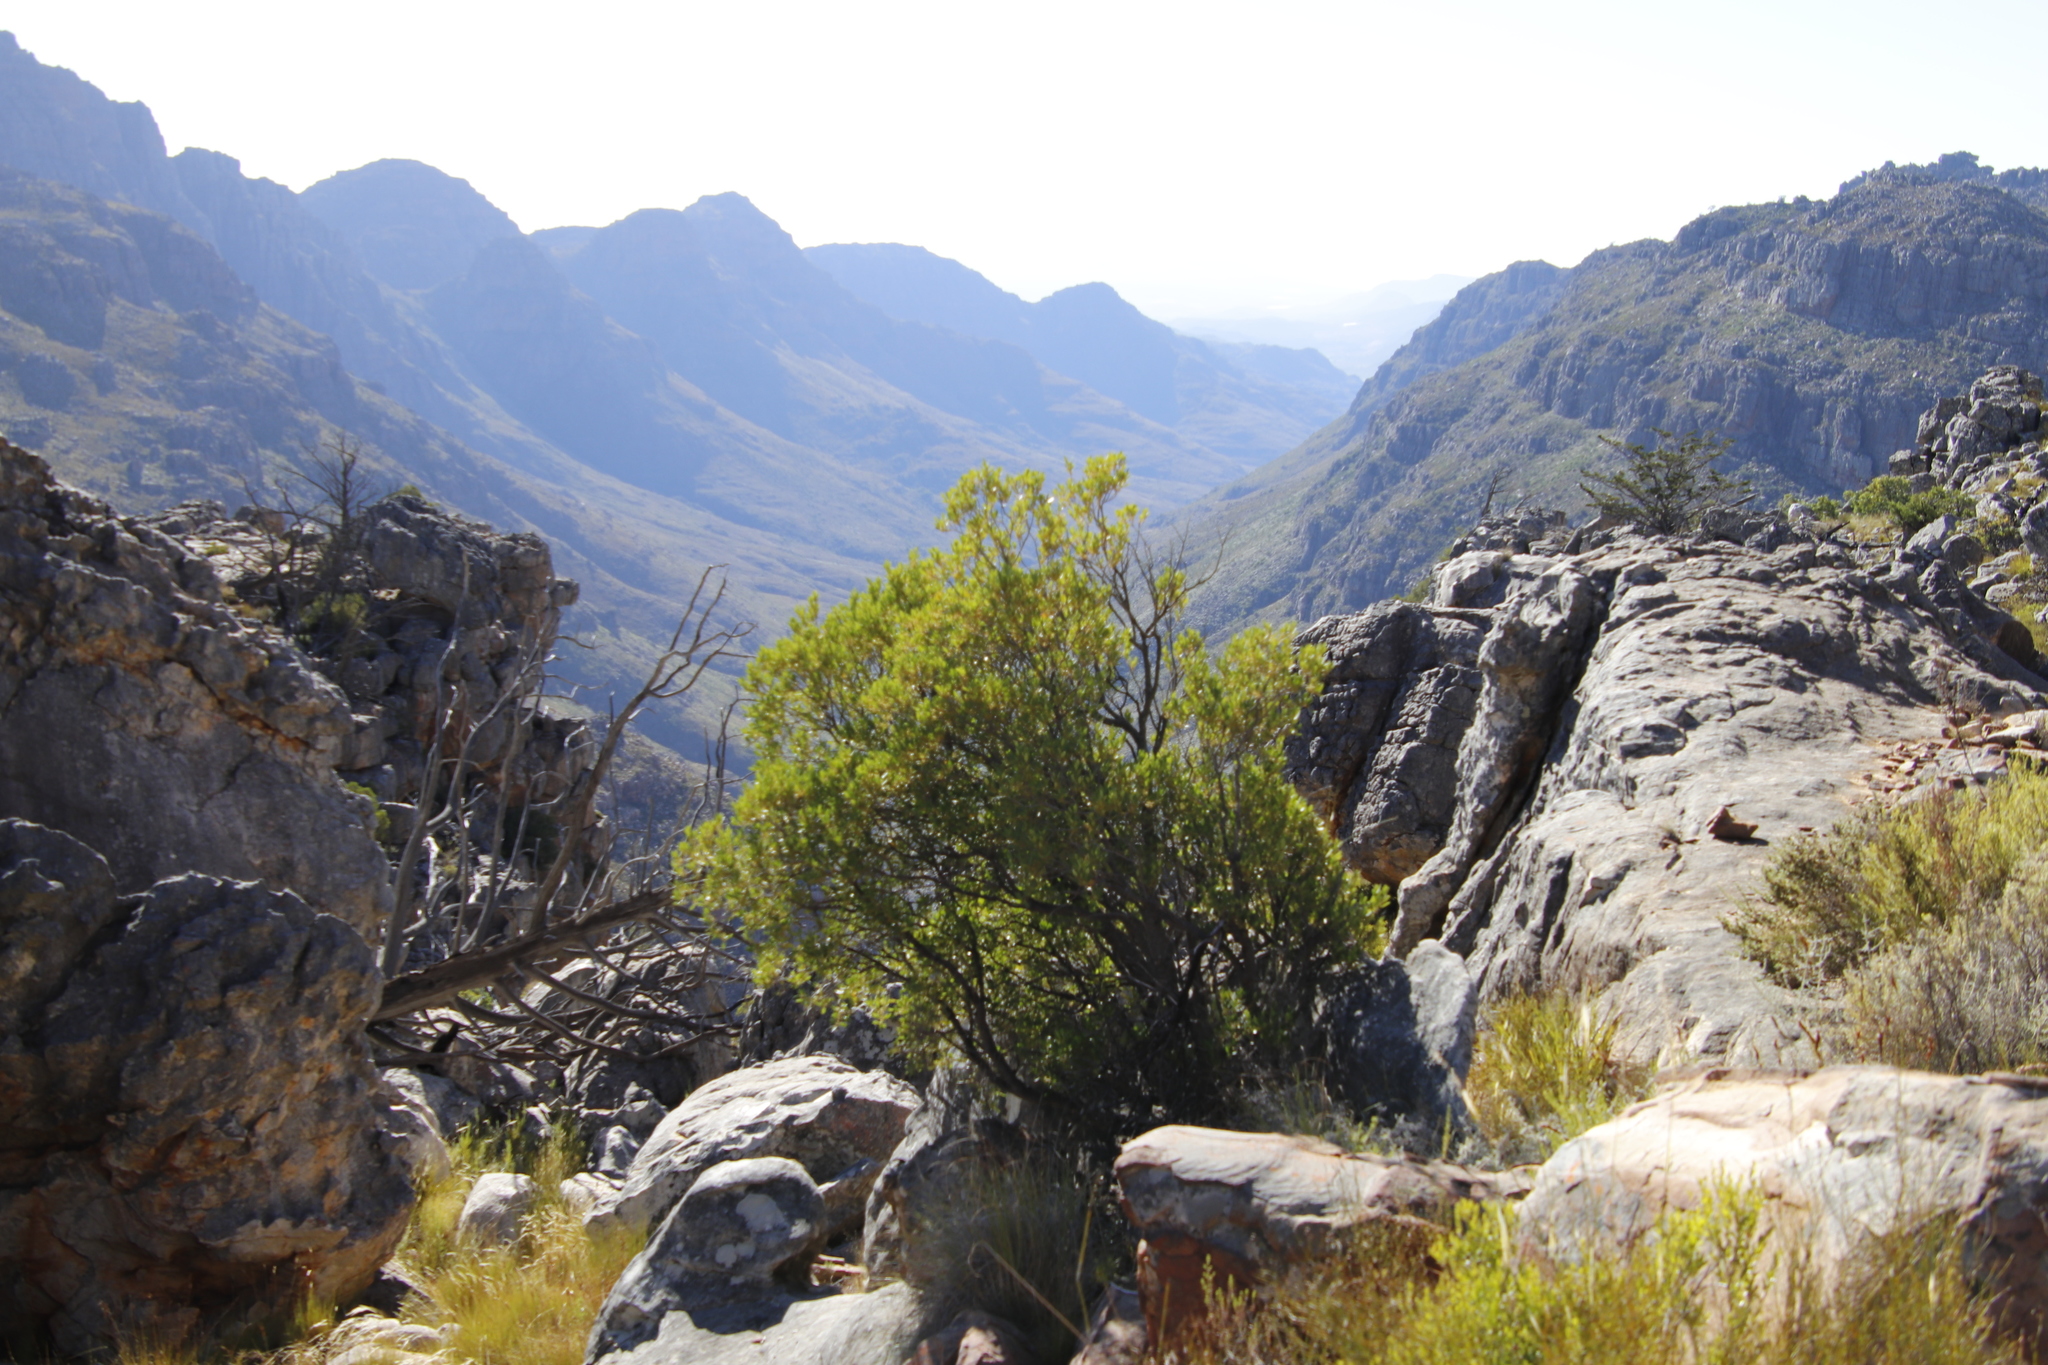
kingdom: Plantae
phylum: Tracheophyta
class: Magnoliopsida
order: Ericales
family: Ebenaceae
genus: Diospyros
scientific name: Diospyros glabra
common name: Fynbos star apple
